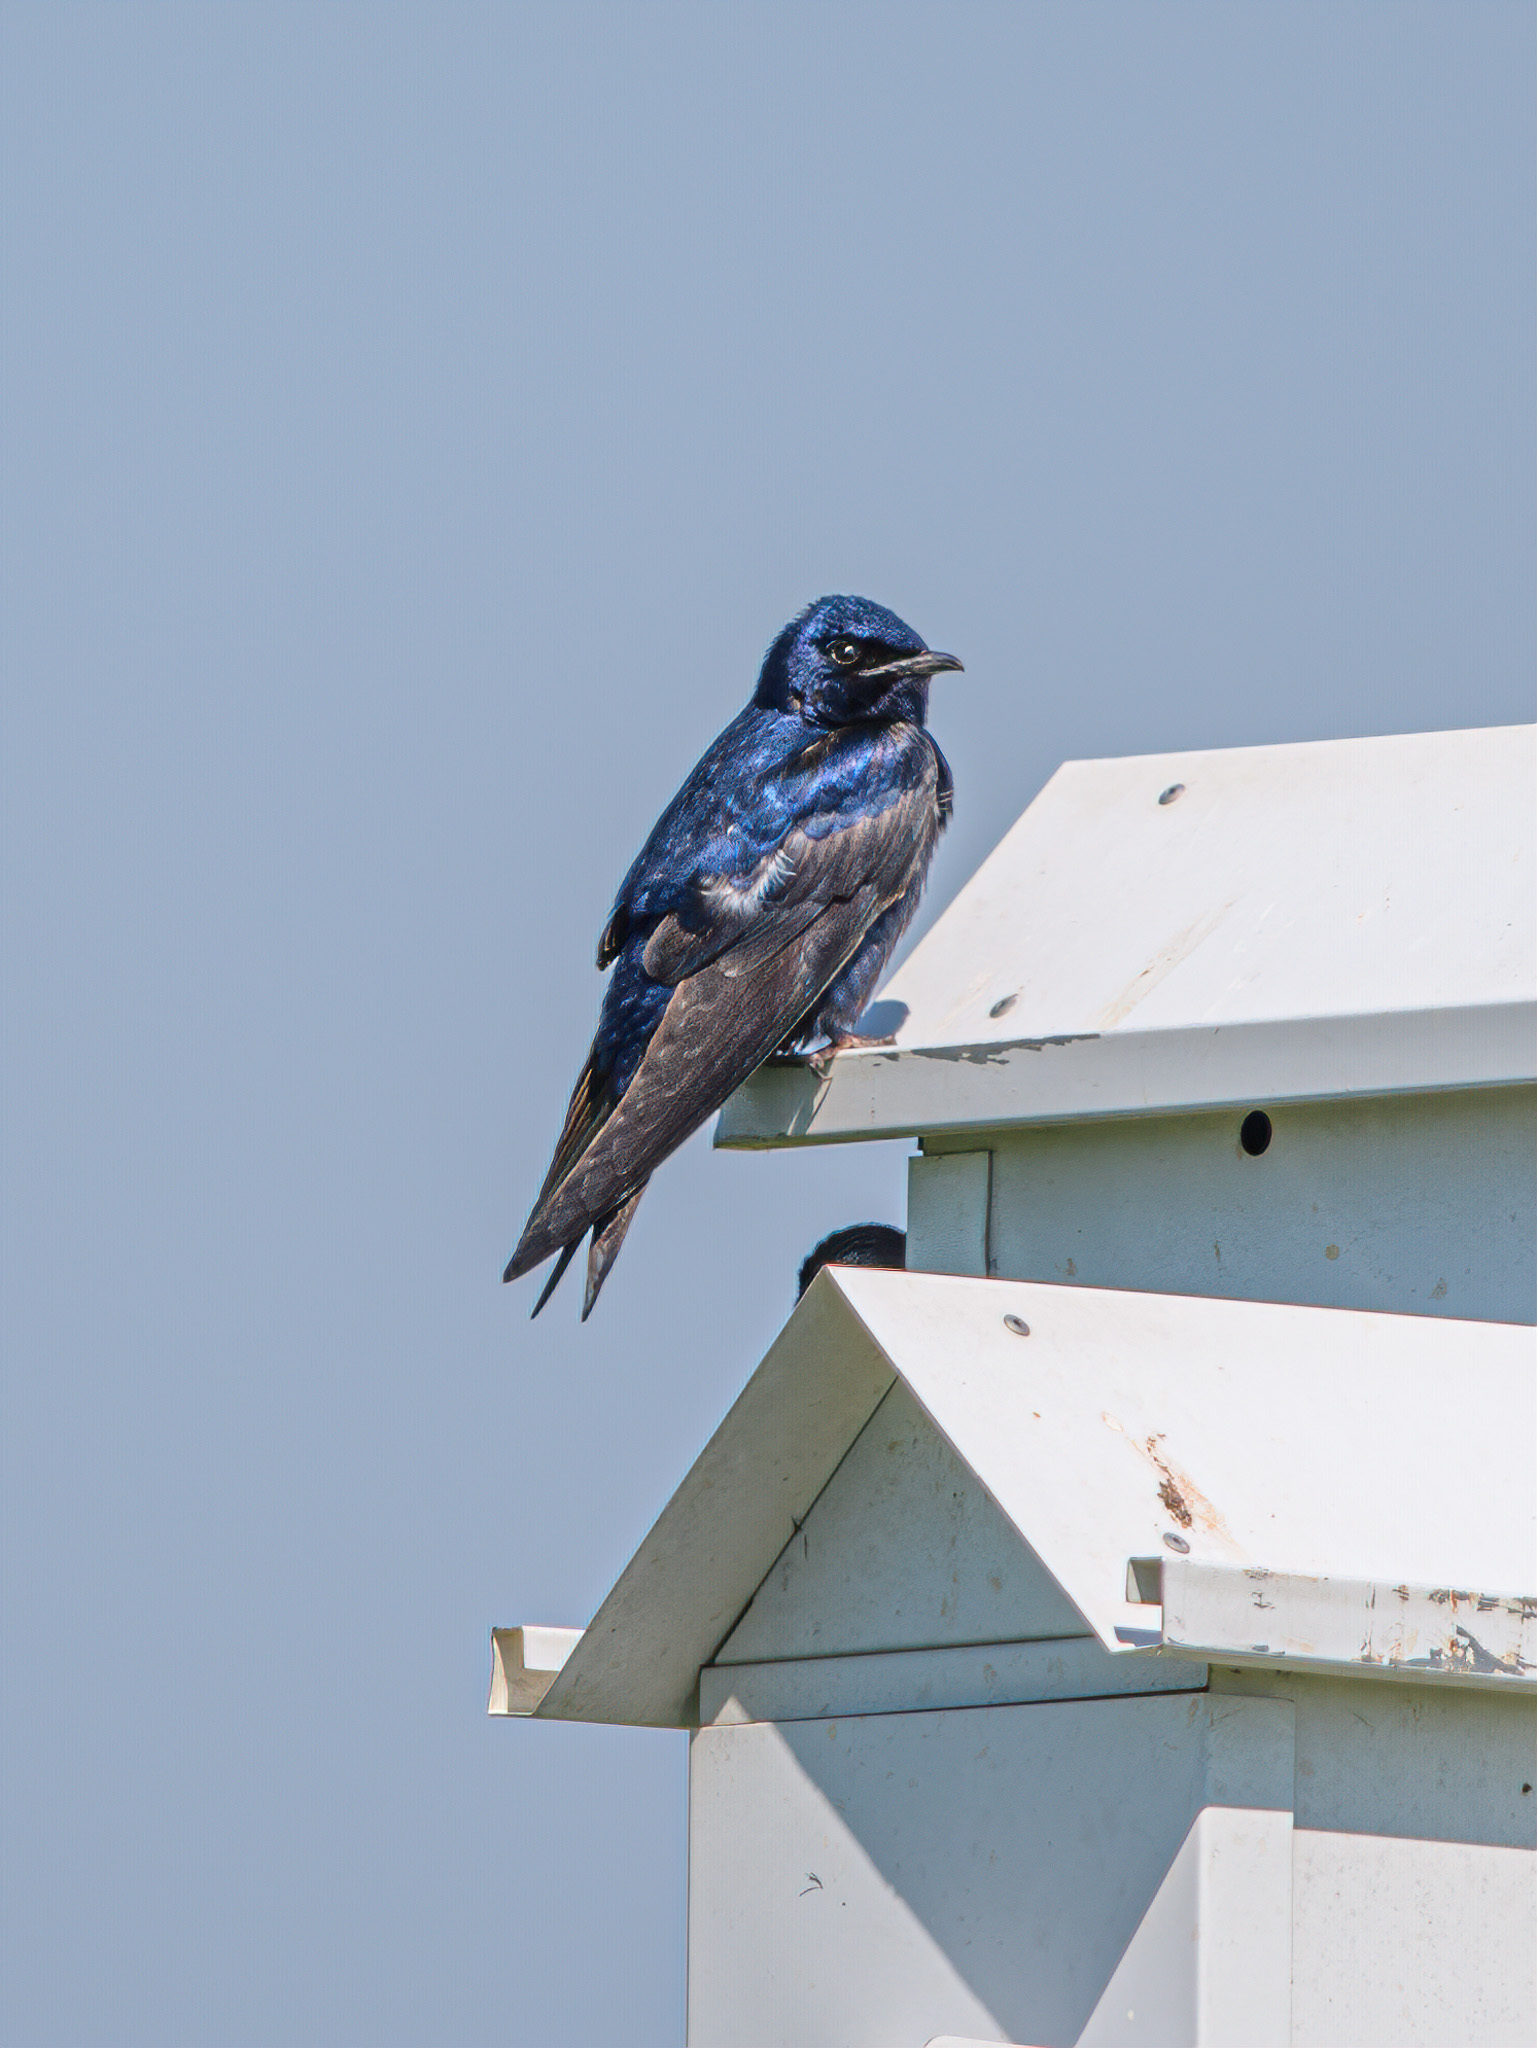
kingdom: Animalia
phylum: Chordata
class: Aves
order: Passeriformes
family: Hirundinidae
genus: Progne
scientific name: Progne subis
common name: Purple martin
